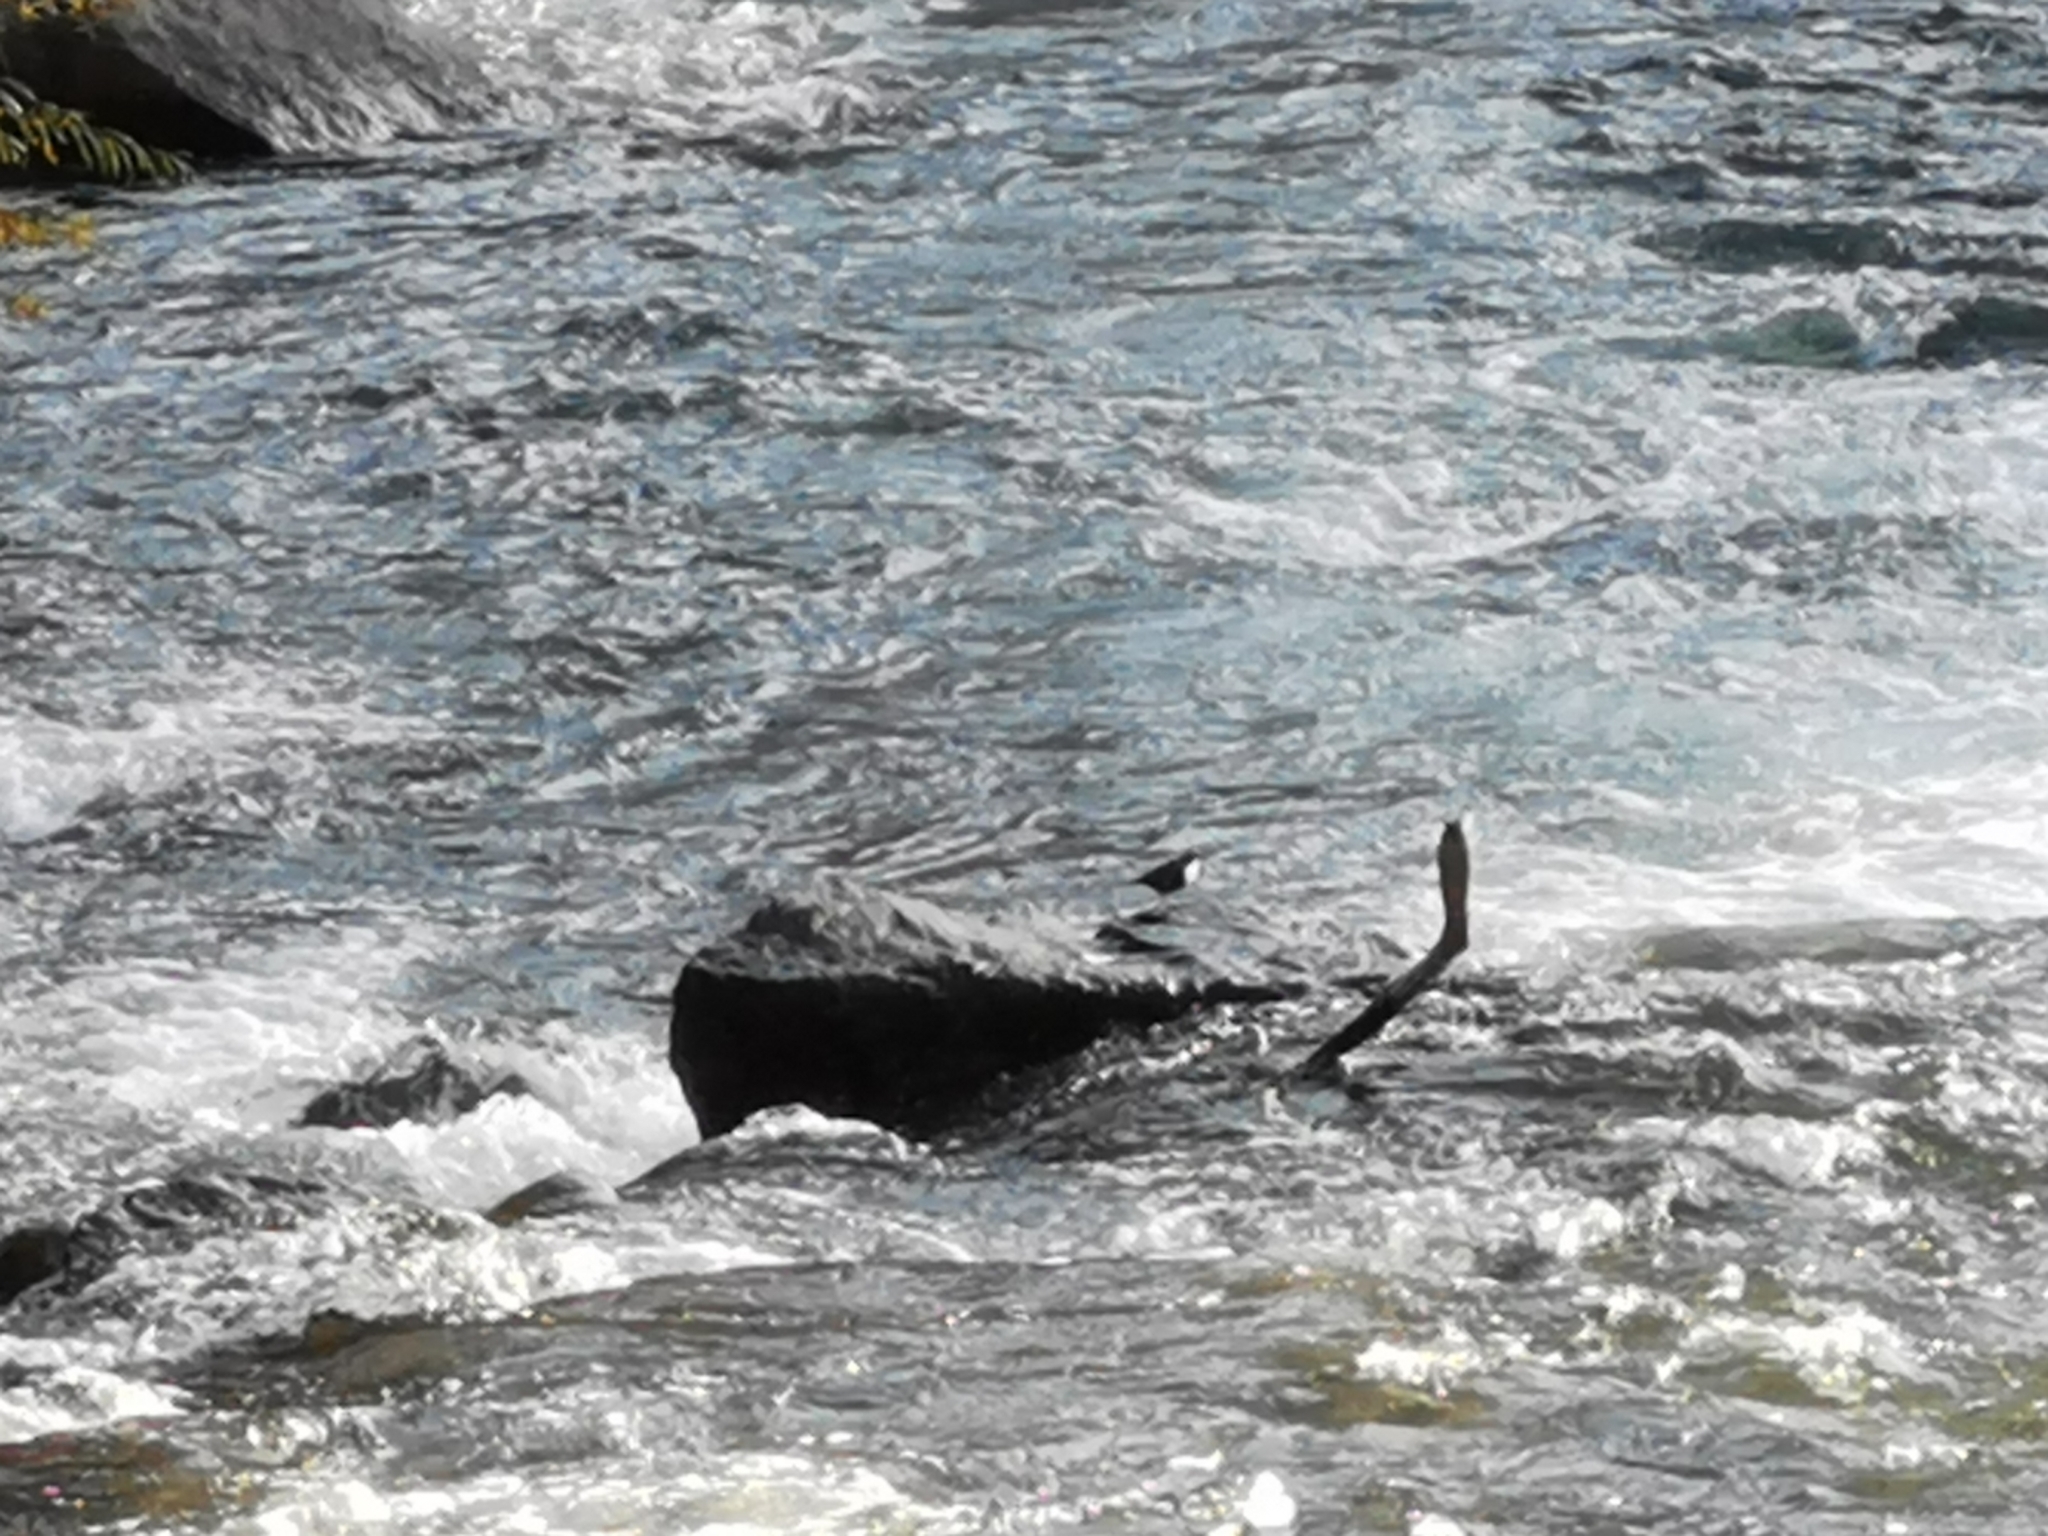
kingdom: Animalia
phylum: Chordata
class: Aves
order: Passeriformes
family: Cinclidae
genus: Cinclus
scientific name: Cinclus cinclus
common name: White-throated dipper
